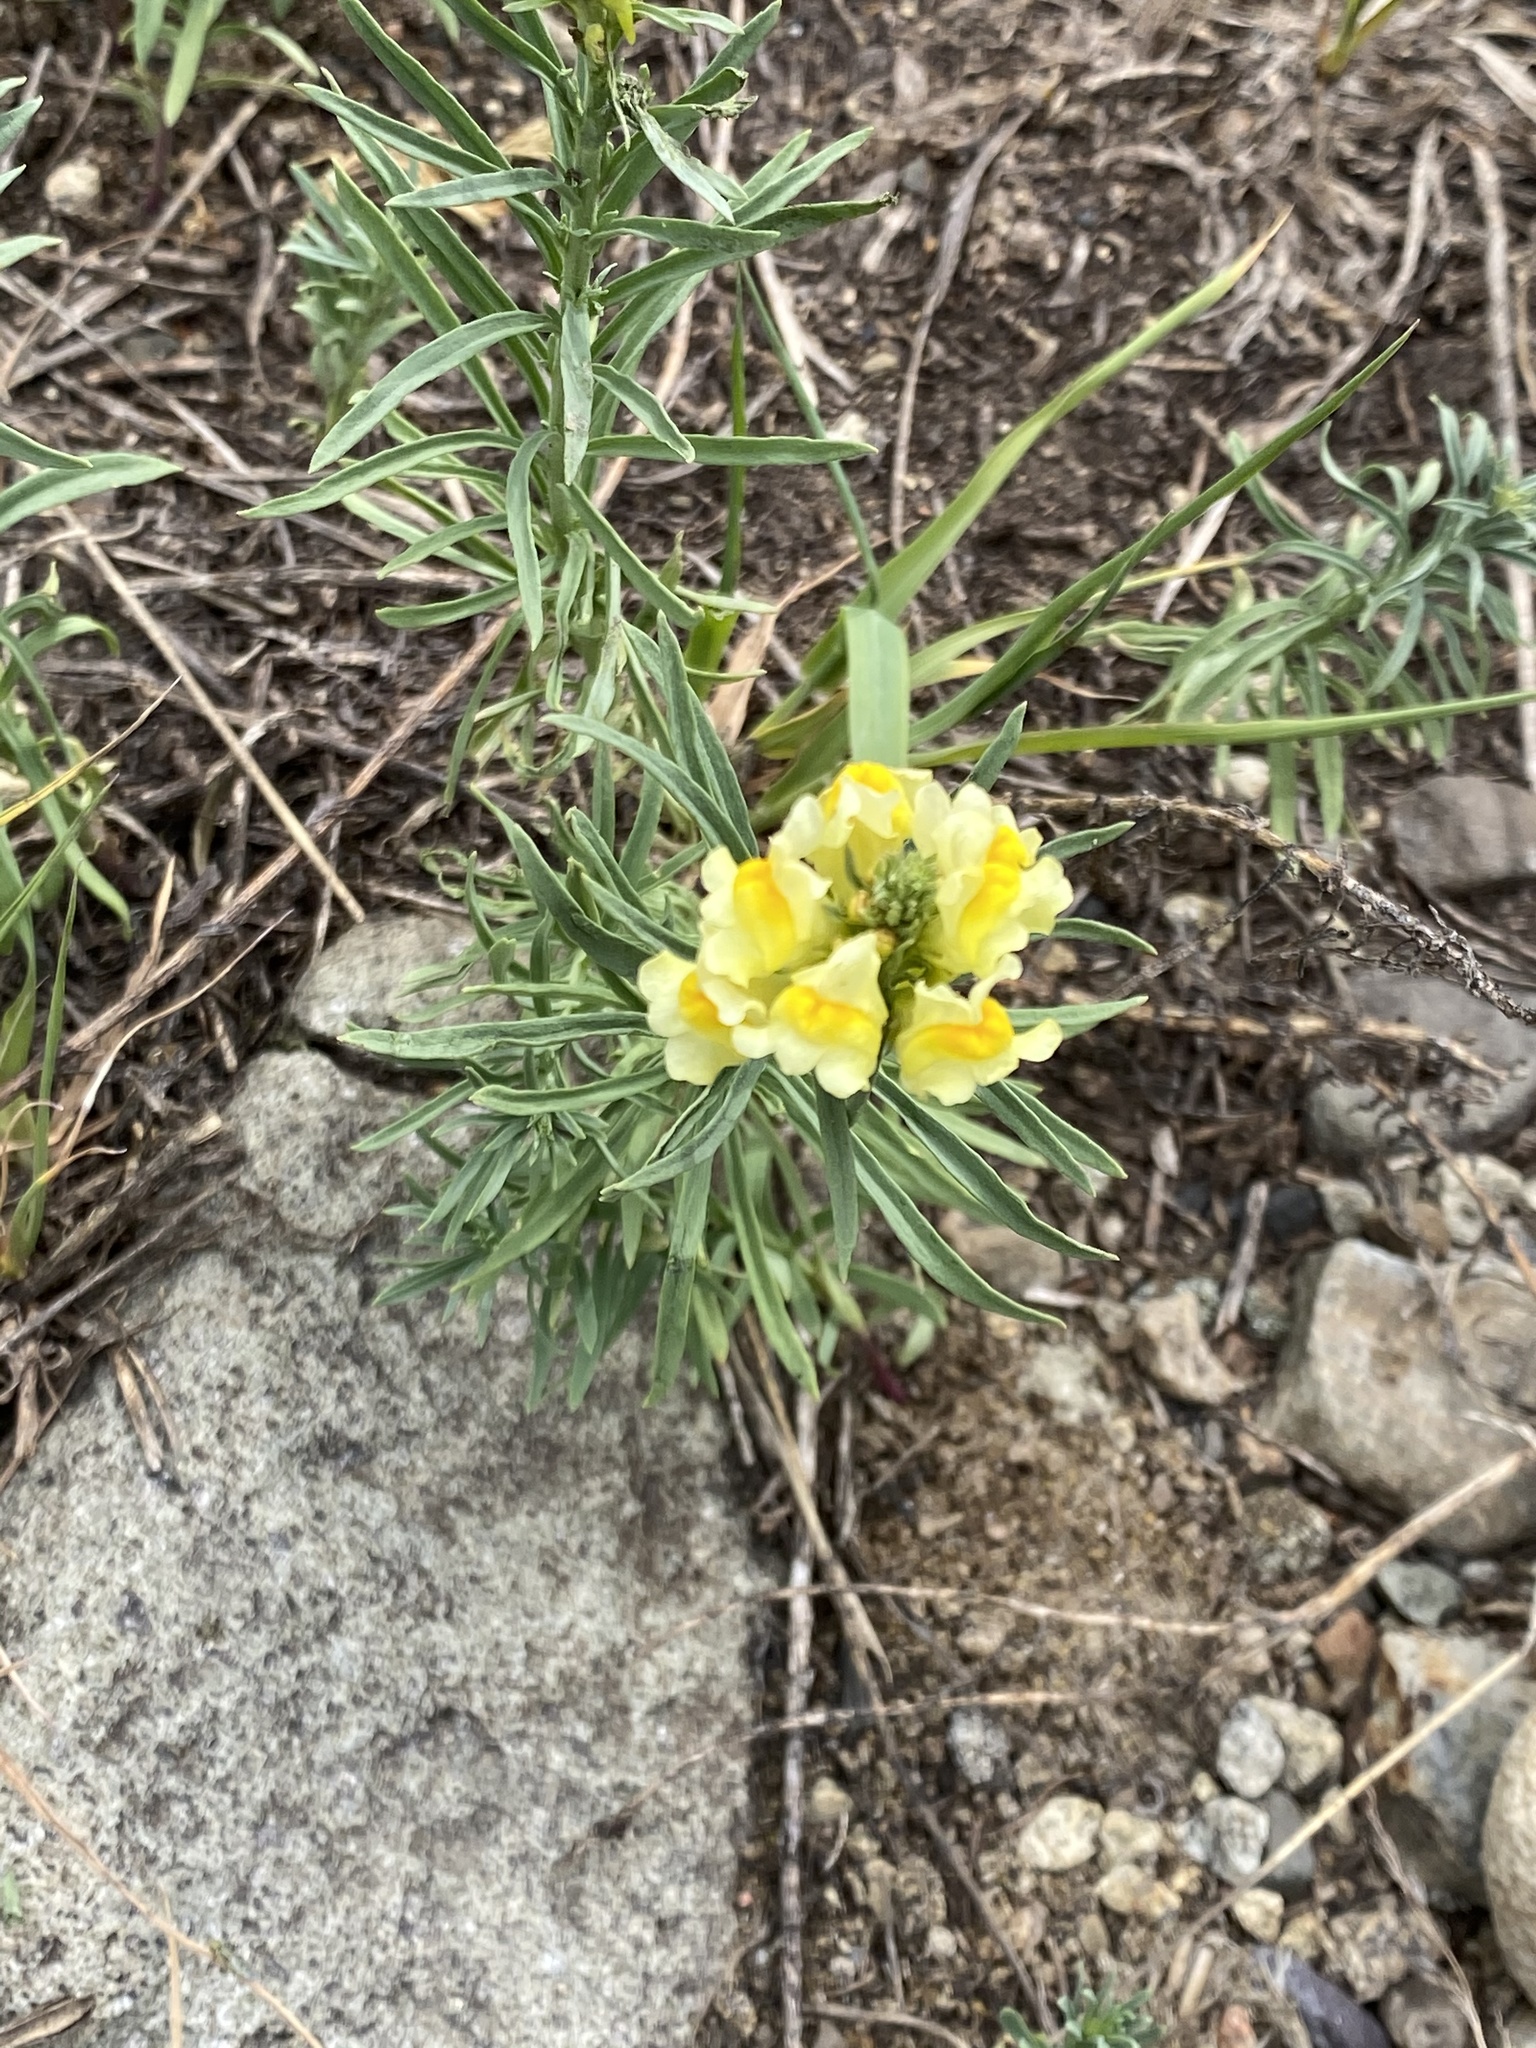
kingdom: Plantae
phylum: Tracheophyta
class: Magnoliopsida
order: Lamiales
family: Plantaginaceae
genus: Linaria
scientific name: Linaria vulgaris
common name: Butter and eggs
